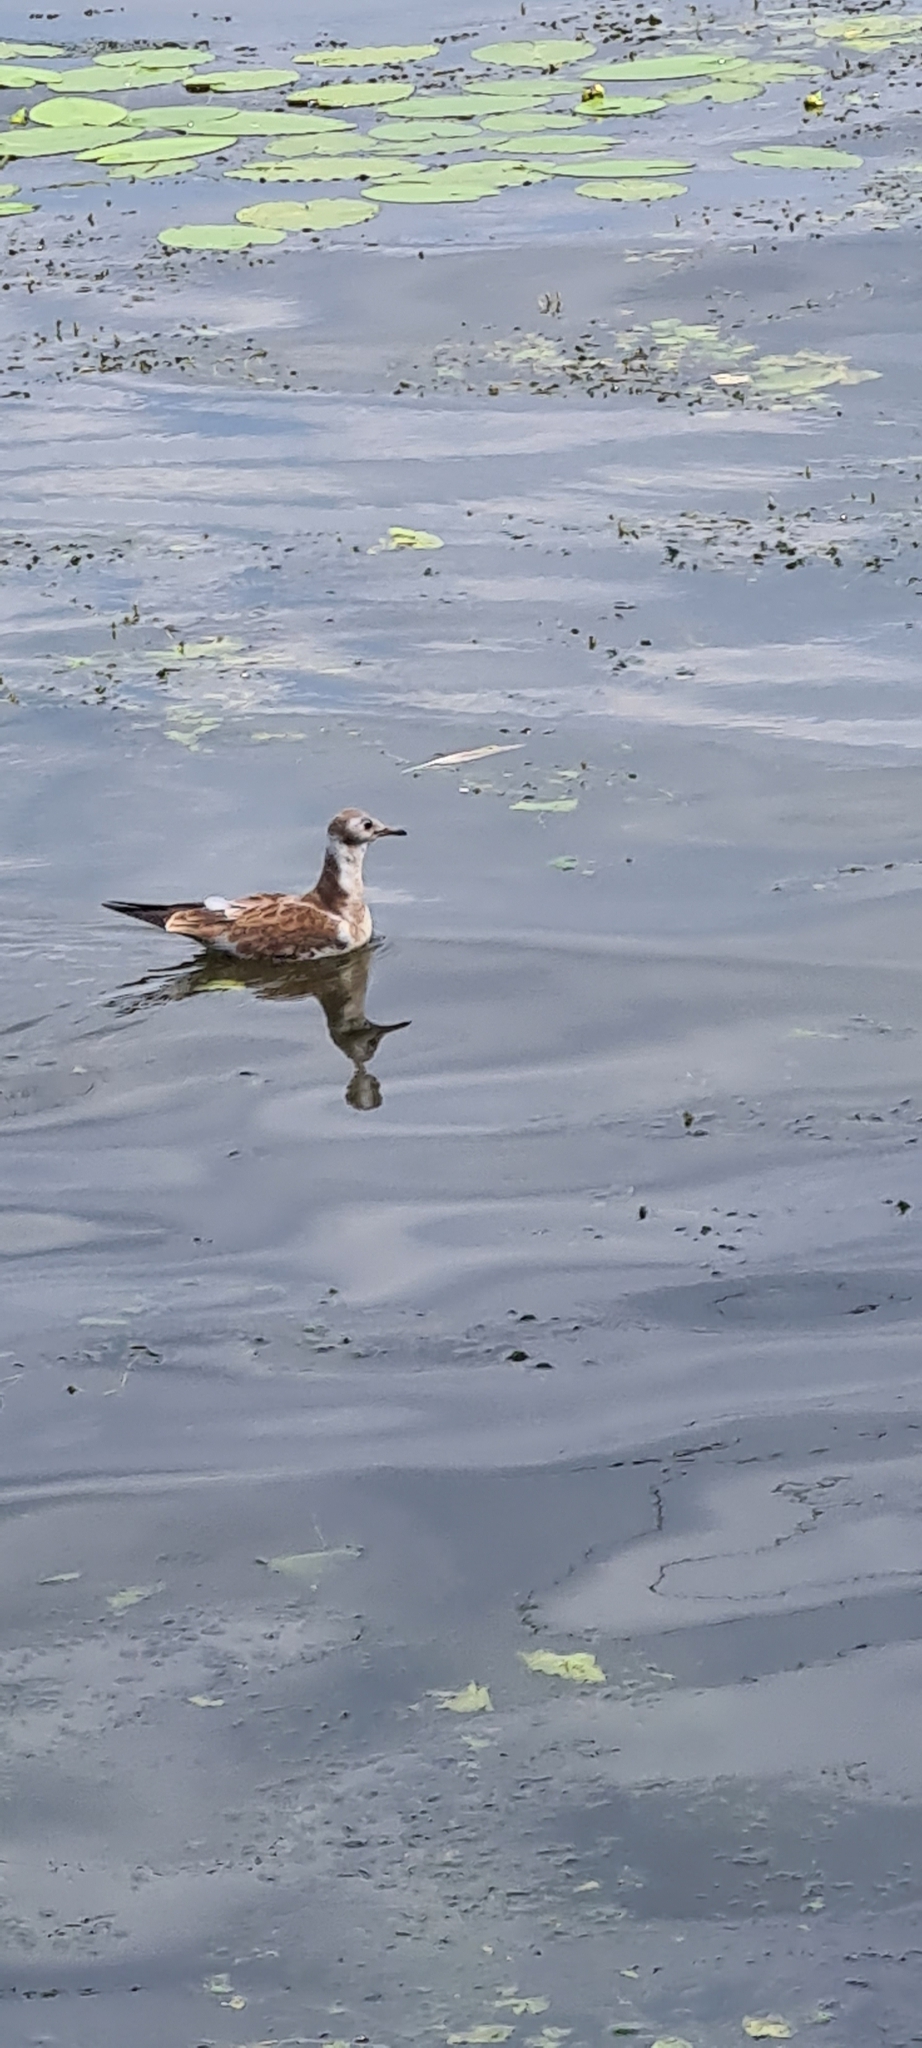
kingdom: Animalia
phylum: Chordata
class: Aves
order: Charadriiformes
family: Laridae
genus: Chroicocephalus
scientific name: Chroicocephalus ridibundus
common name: Black-headed gull
